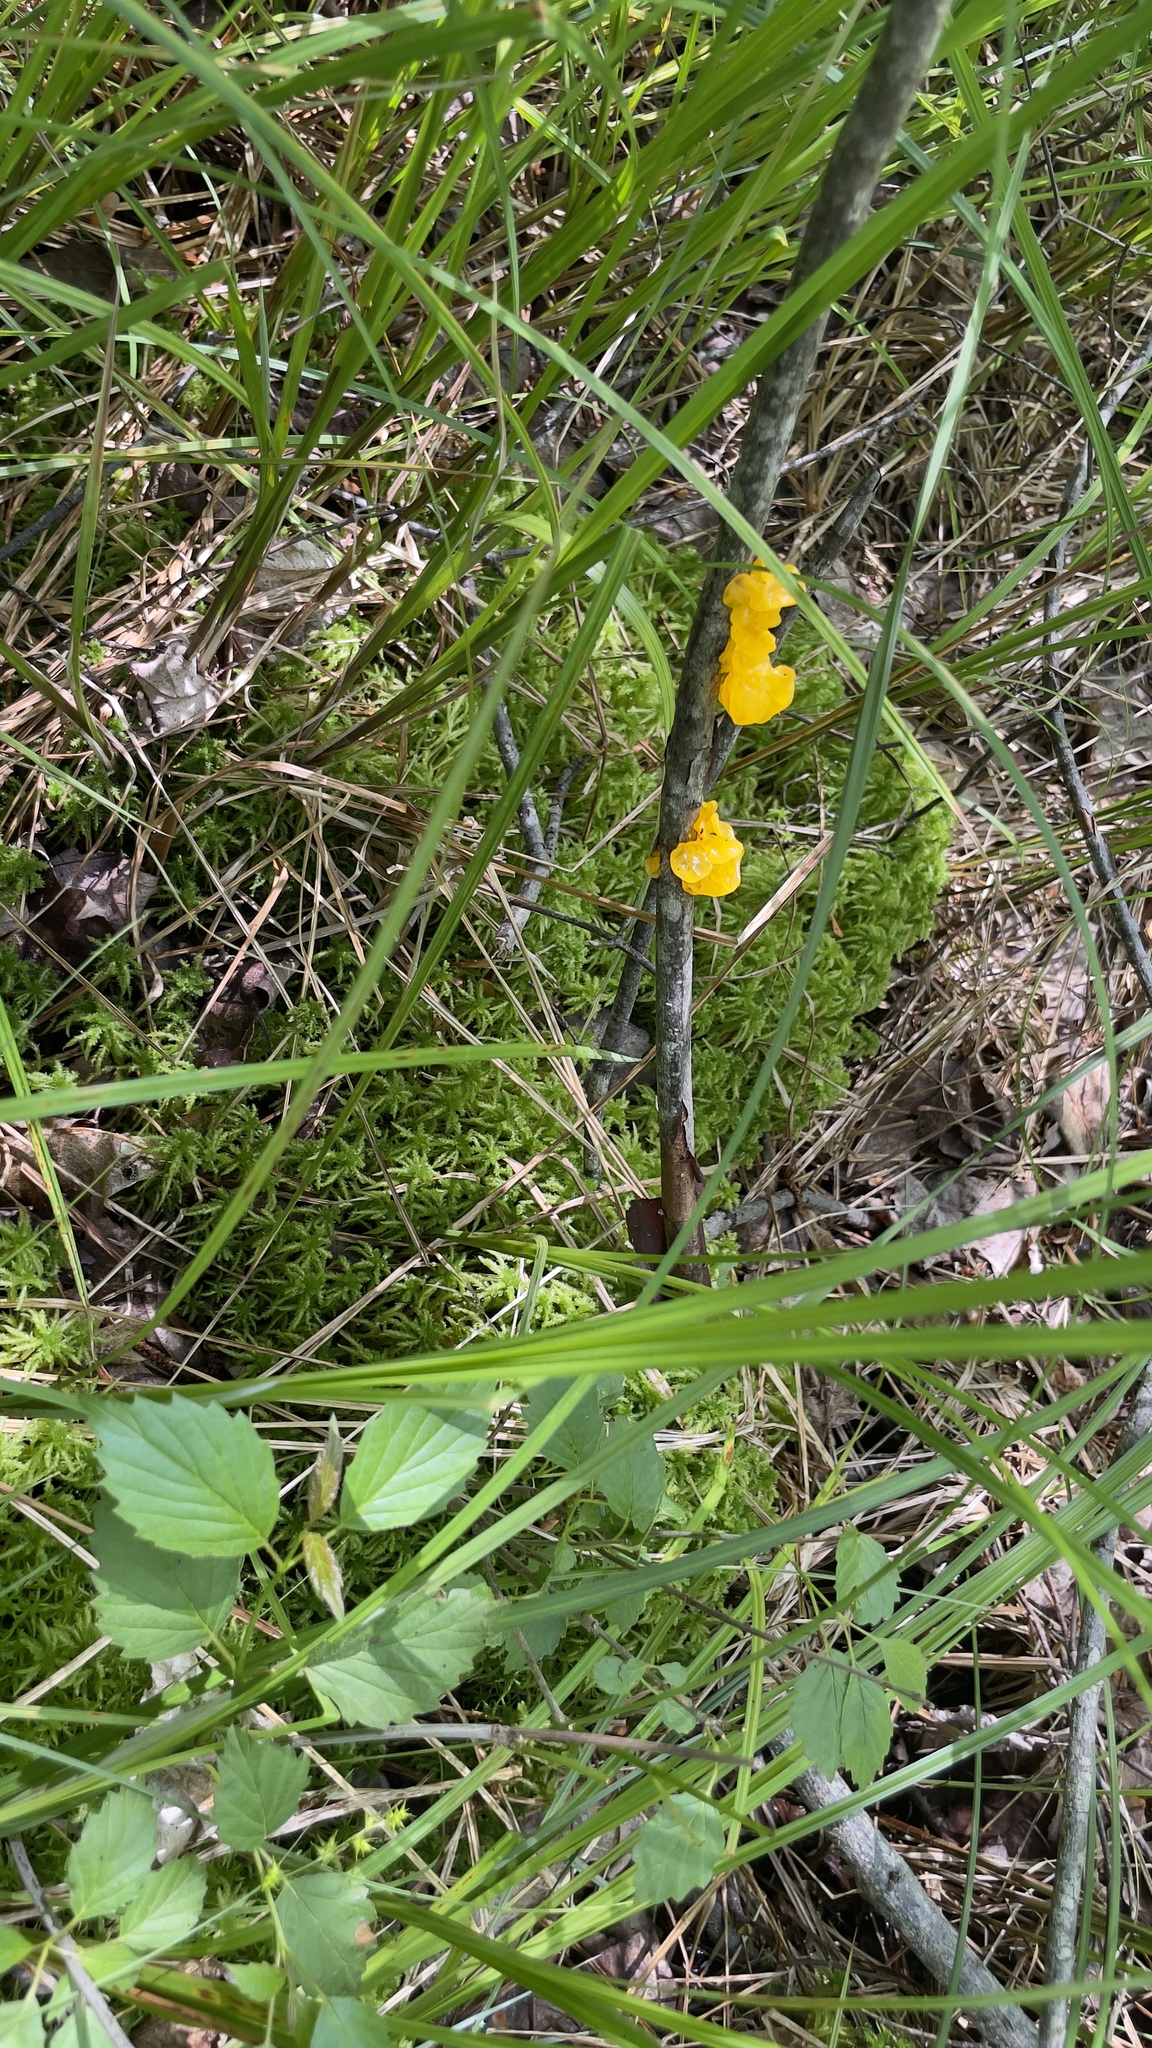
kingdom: Fungi
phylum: Basidiomycota
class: Tremellomycetes
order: Tremellales
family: Tremellaceae
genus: Tremella
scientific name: Tremella mesenterica
